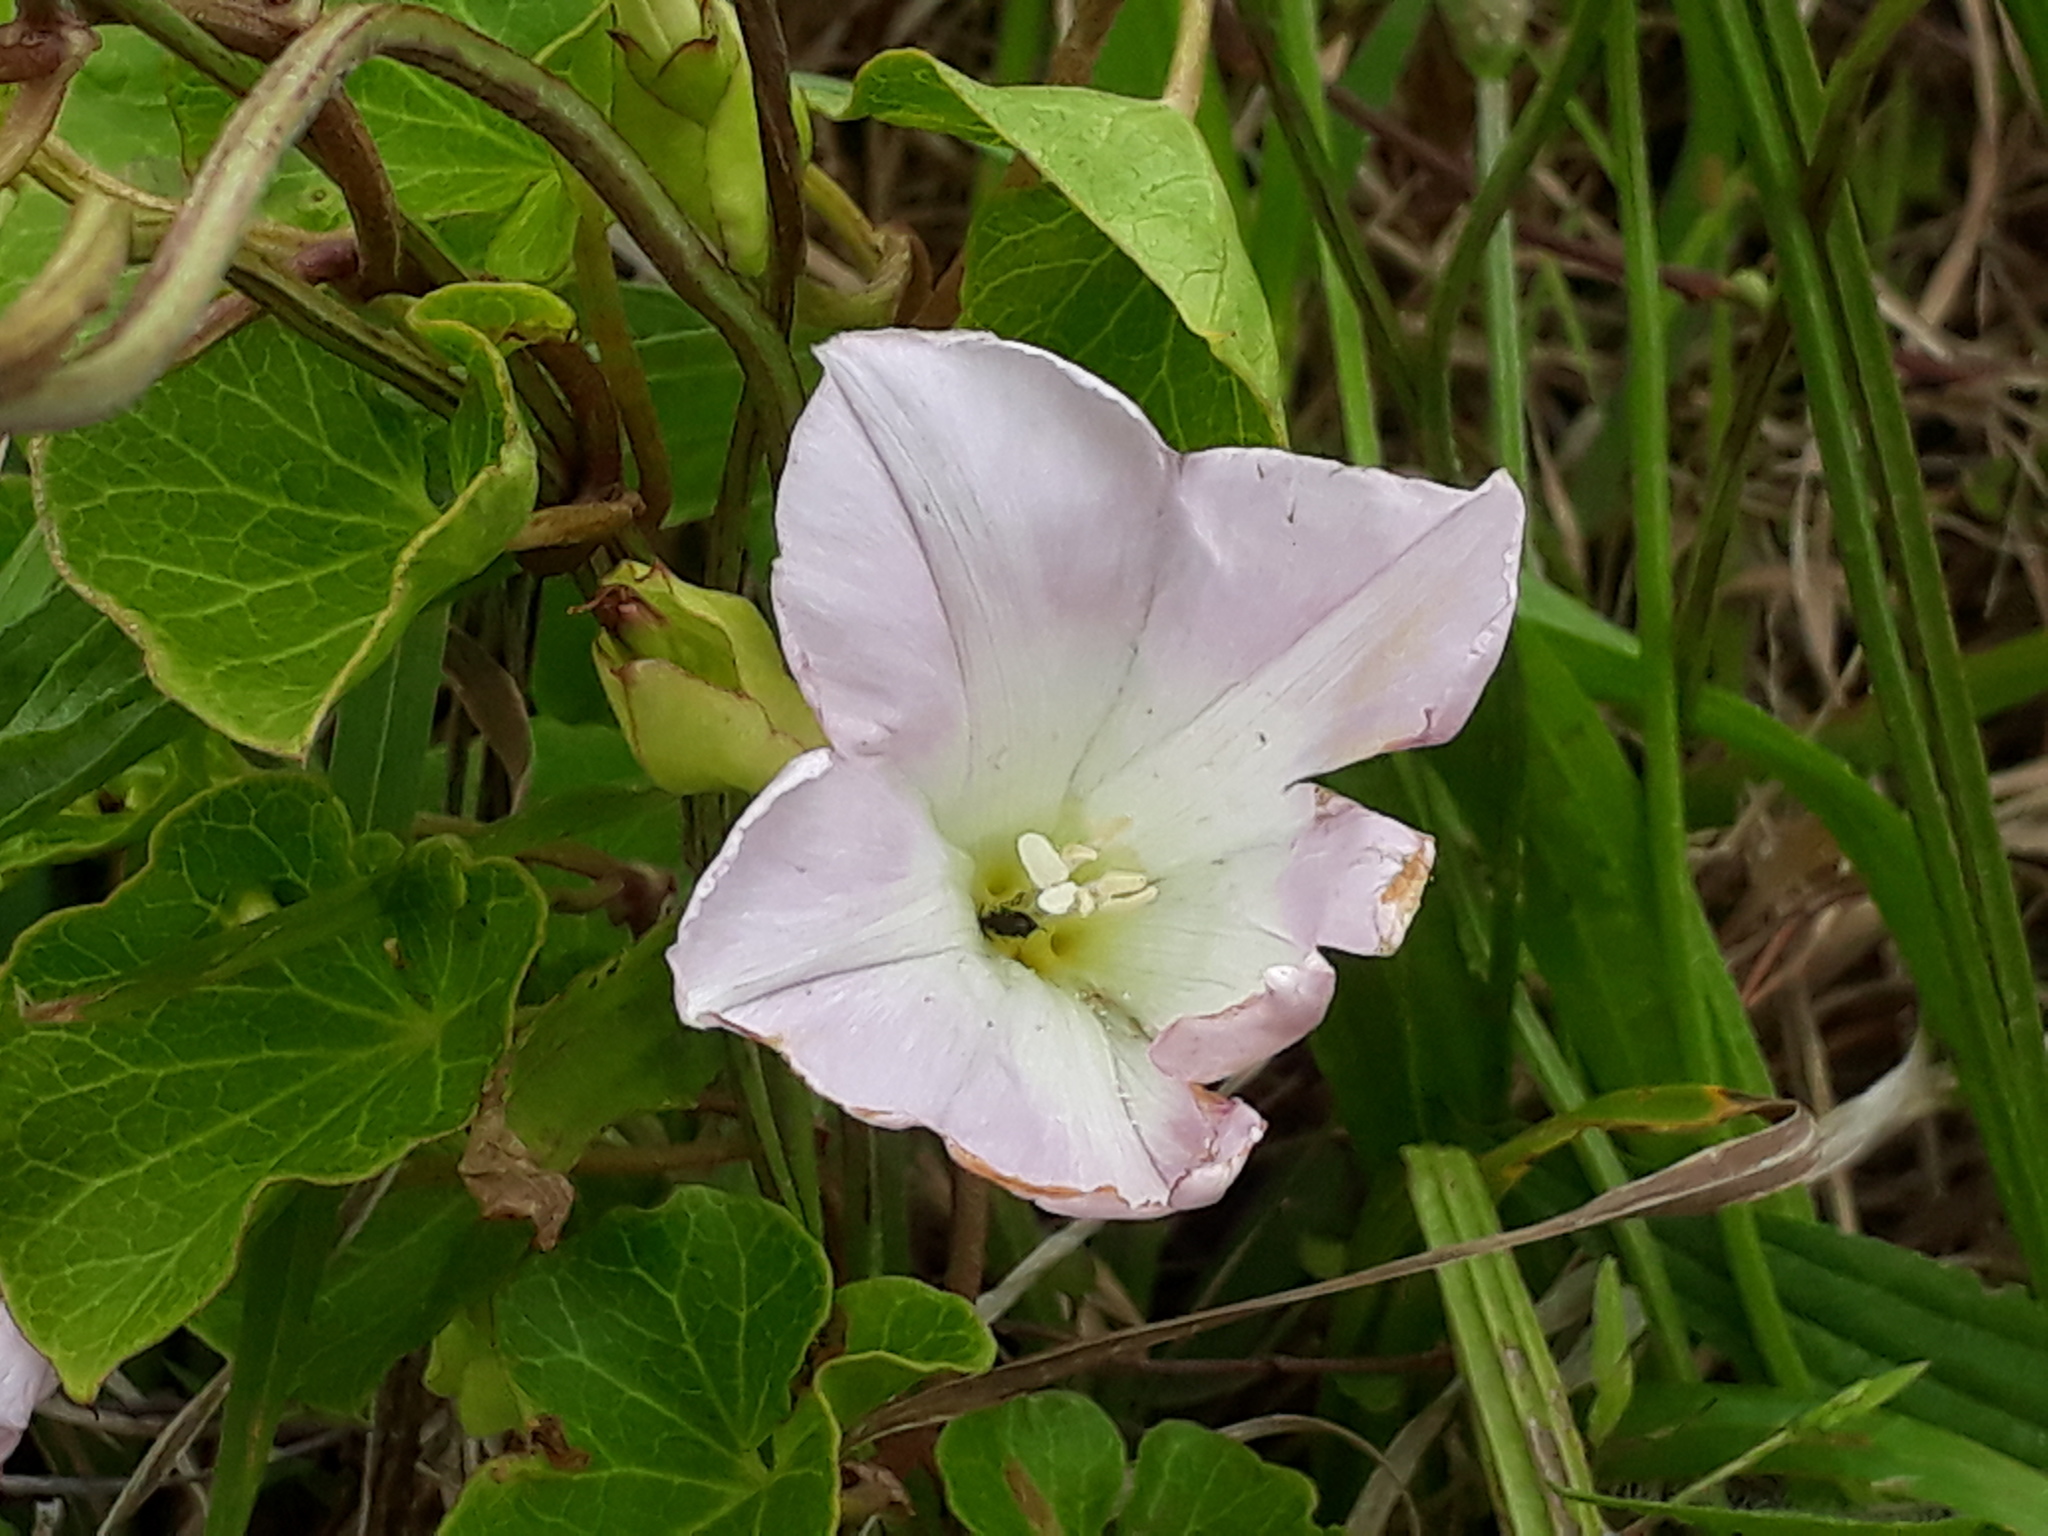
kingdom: Plantae
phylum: Tracheophyta
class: Magnoliopsida
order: Solanales
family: Convolvulaceae
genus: Calystegia
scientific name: Calystegia soldanella
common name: Sea bindweed
